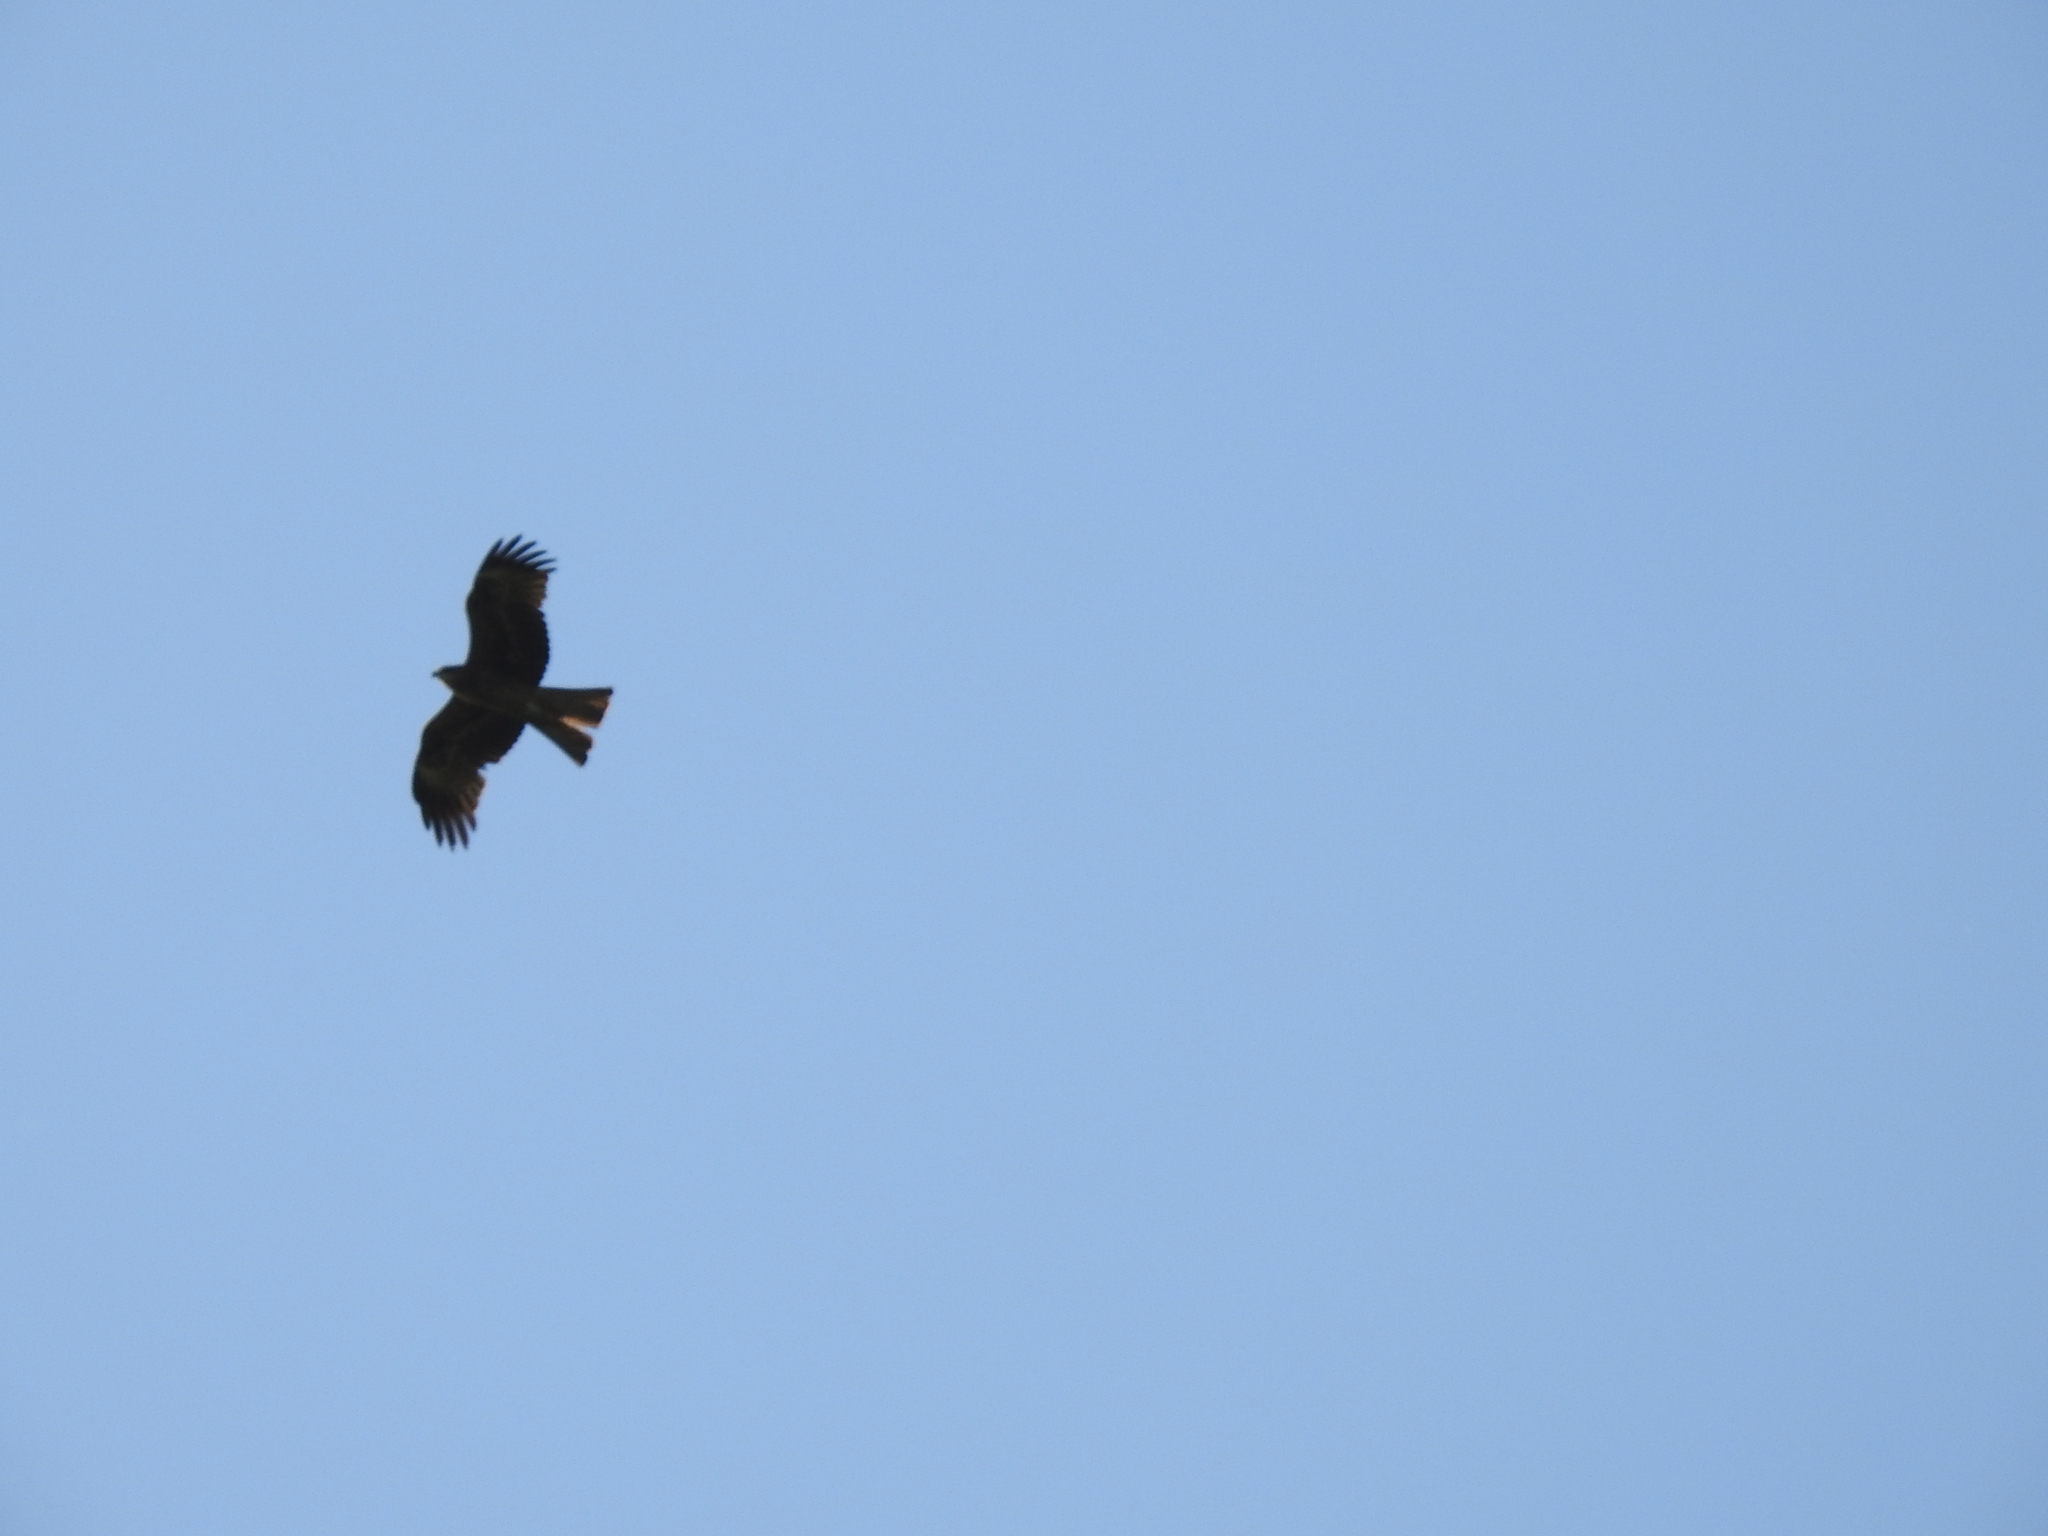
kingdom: Animalia
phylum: Chordata
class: Aves
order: Accipitriformes
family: Accipitridae
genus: Milvus
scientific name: Milvus migrans
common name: Black kite
